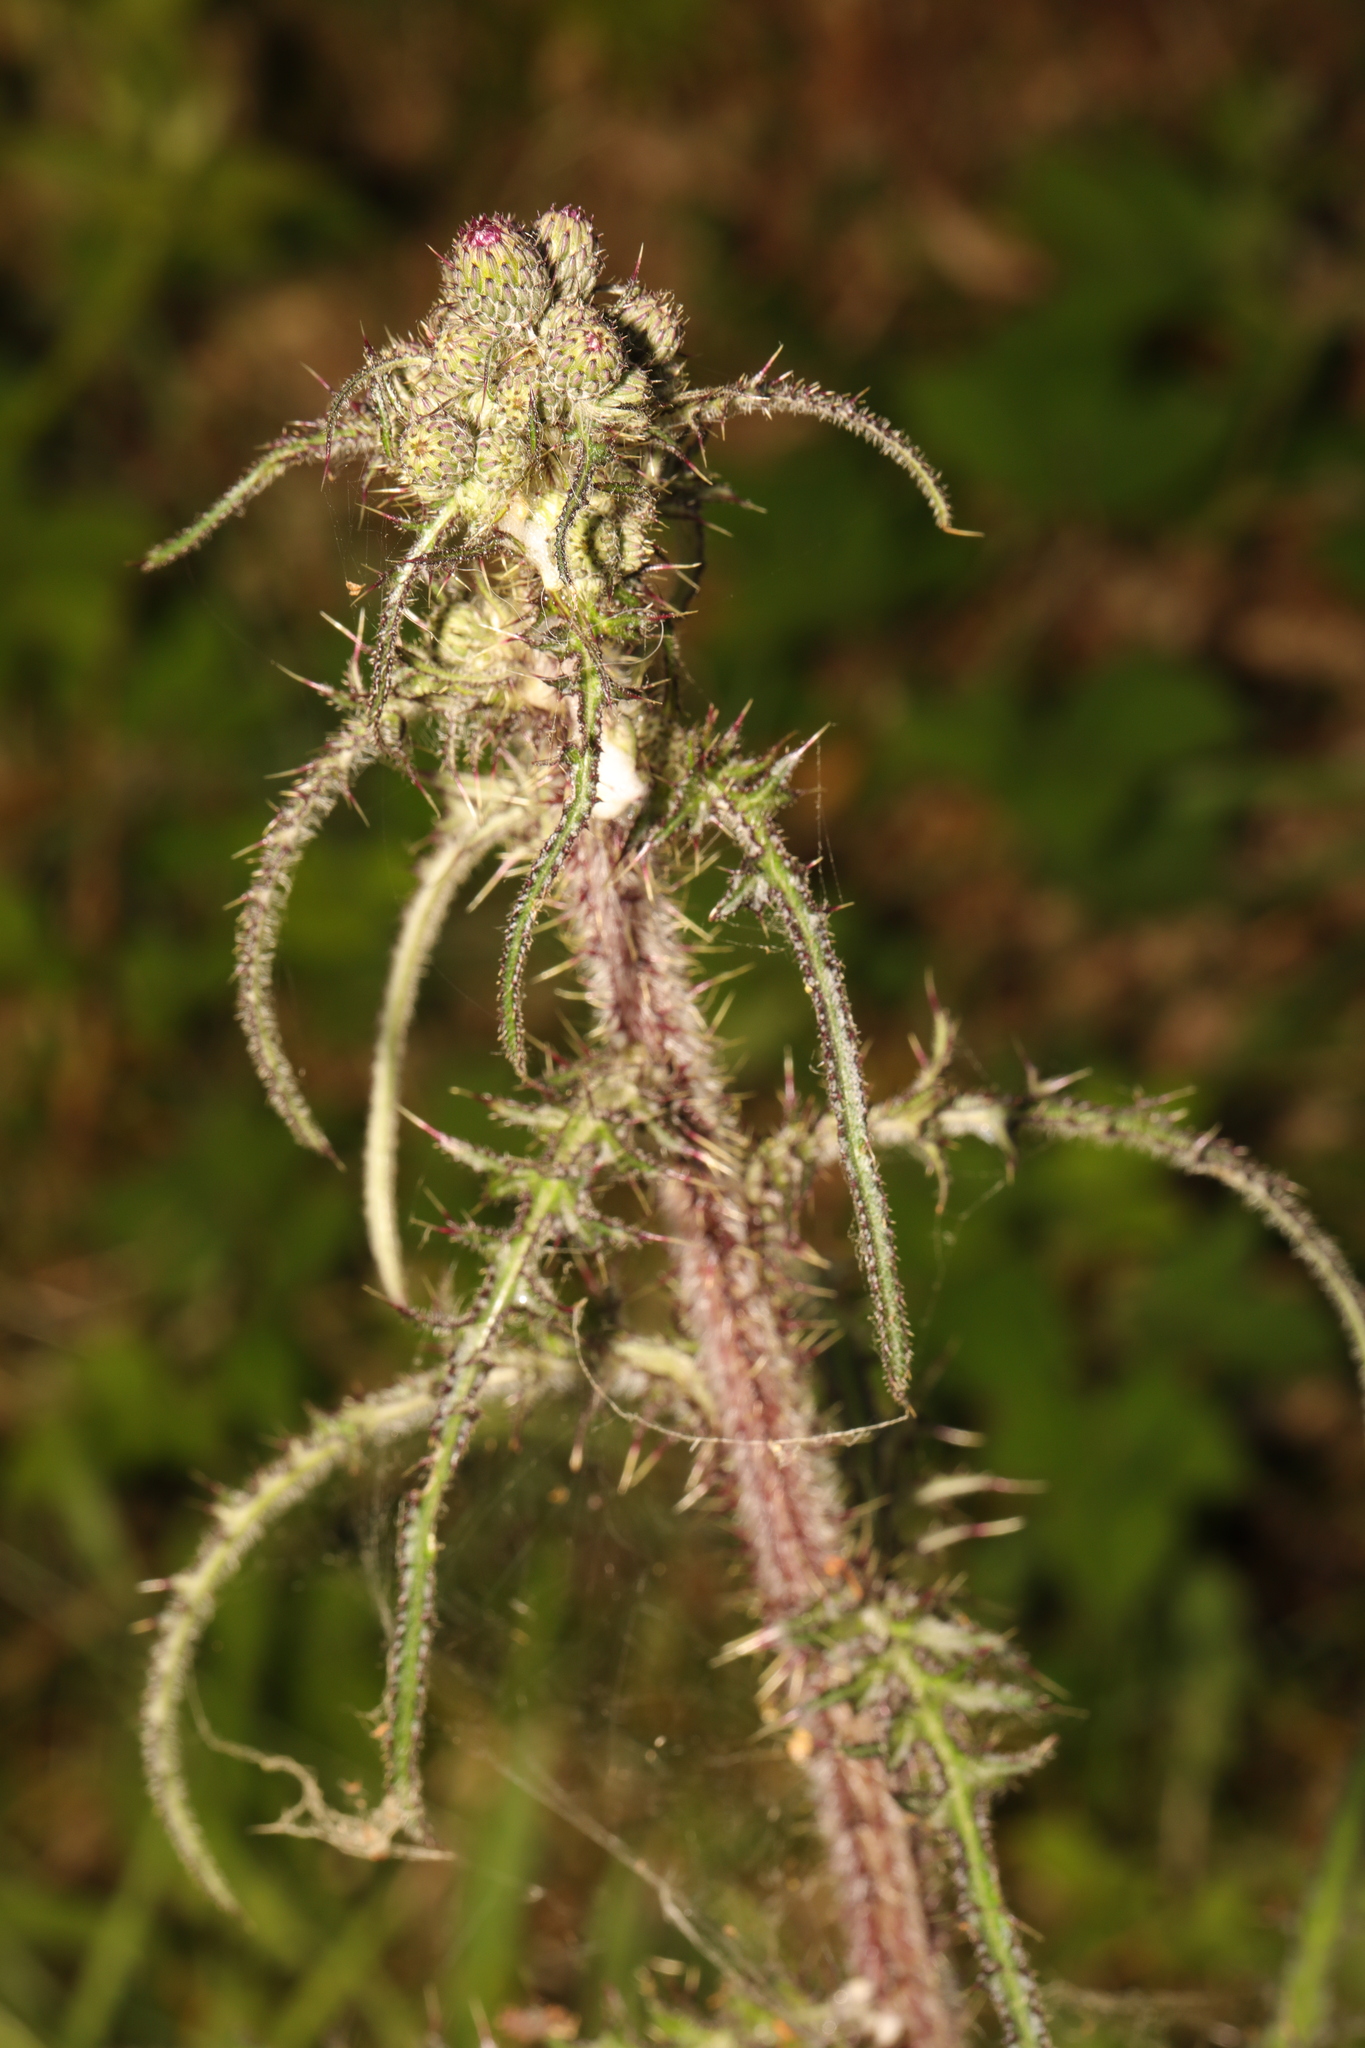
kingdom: Plantae
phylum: Tracheophyta
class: Magnoliopsida
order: Asterales
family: Asteraceae
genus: Cirsium
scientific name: Cirsium palustre
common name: Marsh thistle
